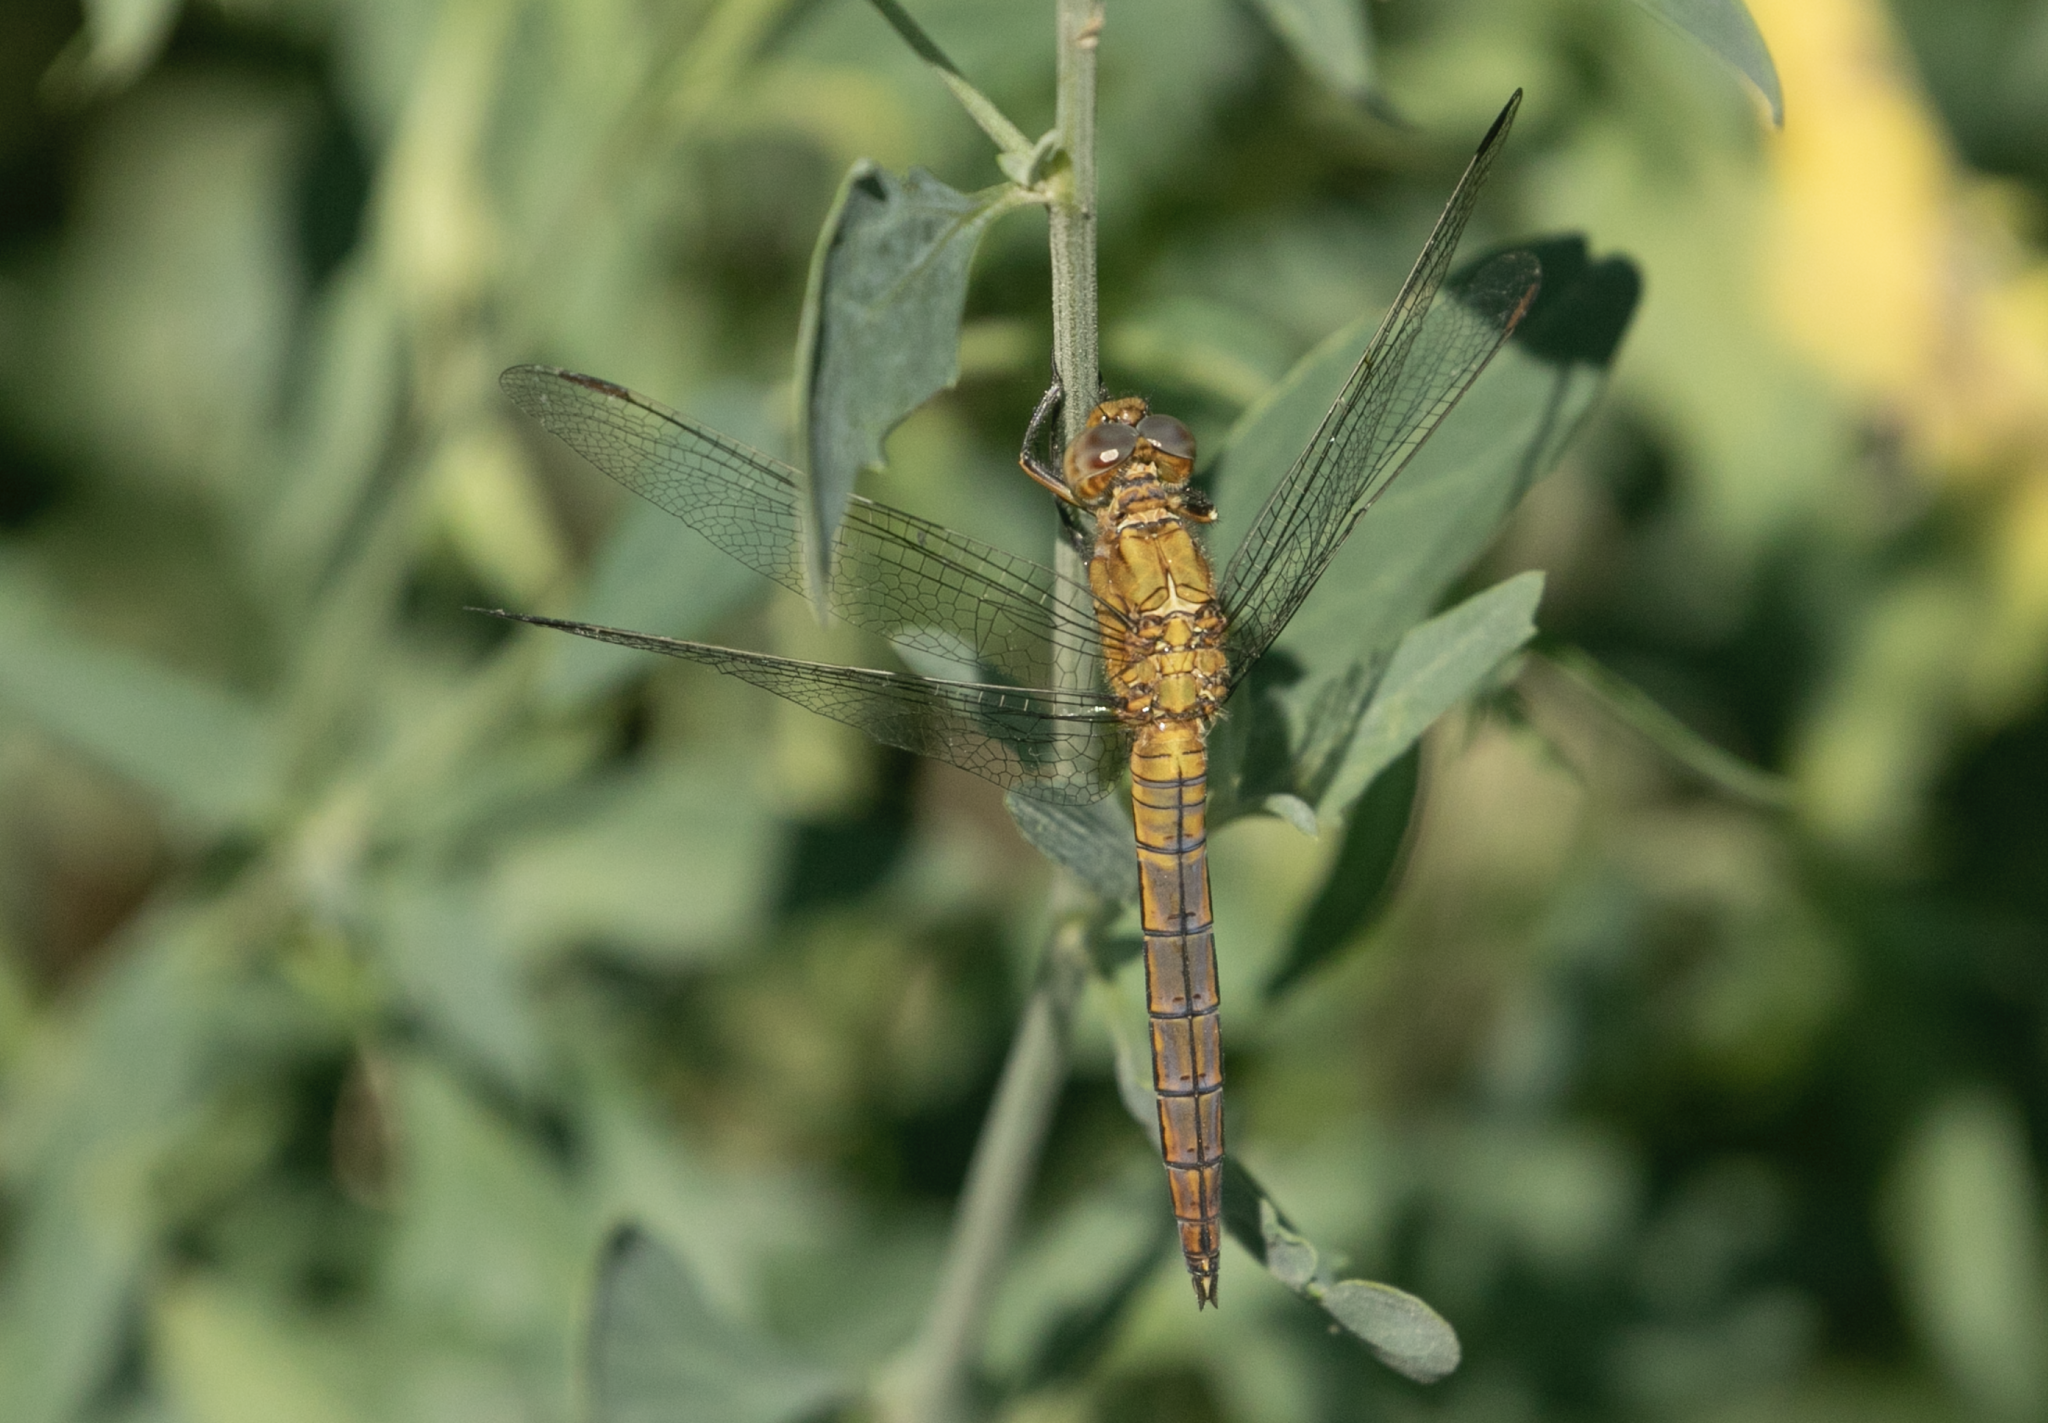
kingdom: Animalia
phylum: Arthropoda
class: Insecta
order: Odonata
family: Libellulidae
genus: Orthetrum
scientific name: Orthetrum coerulescens
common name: Keeled skimmer
